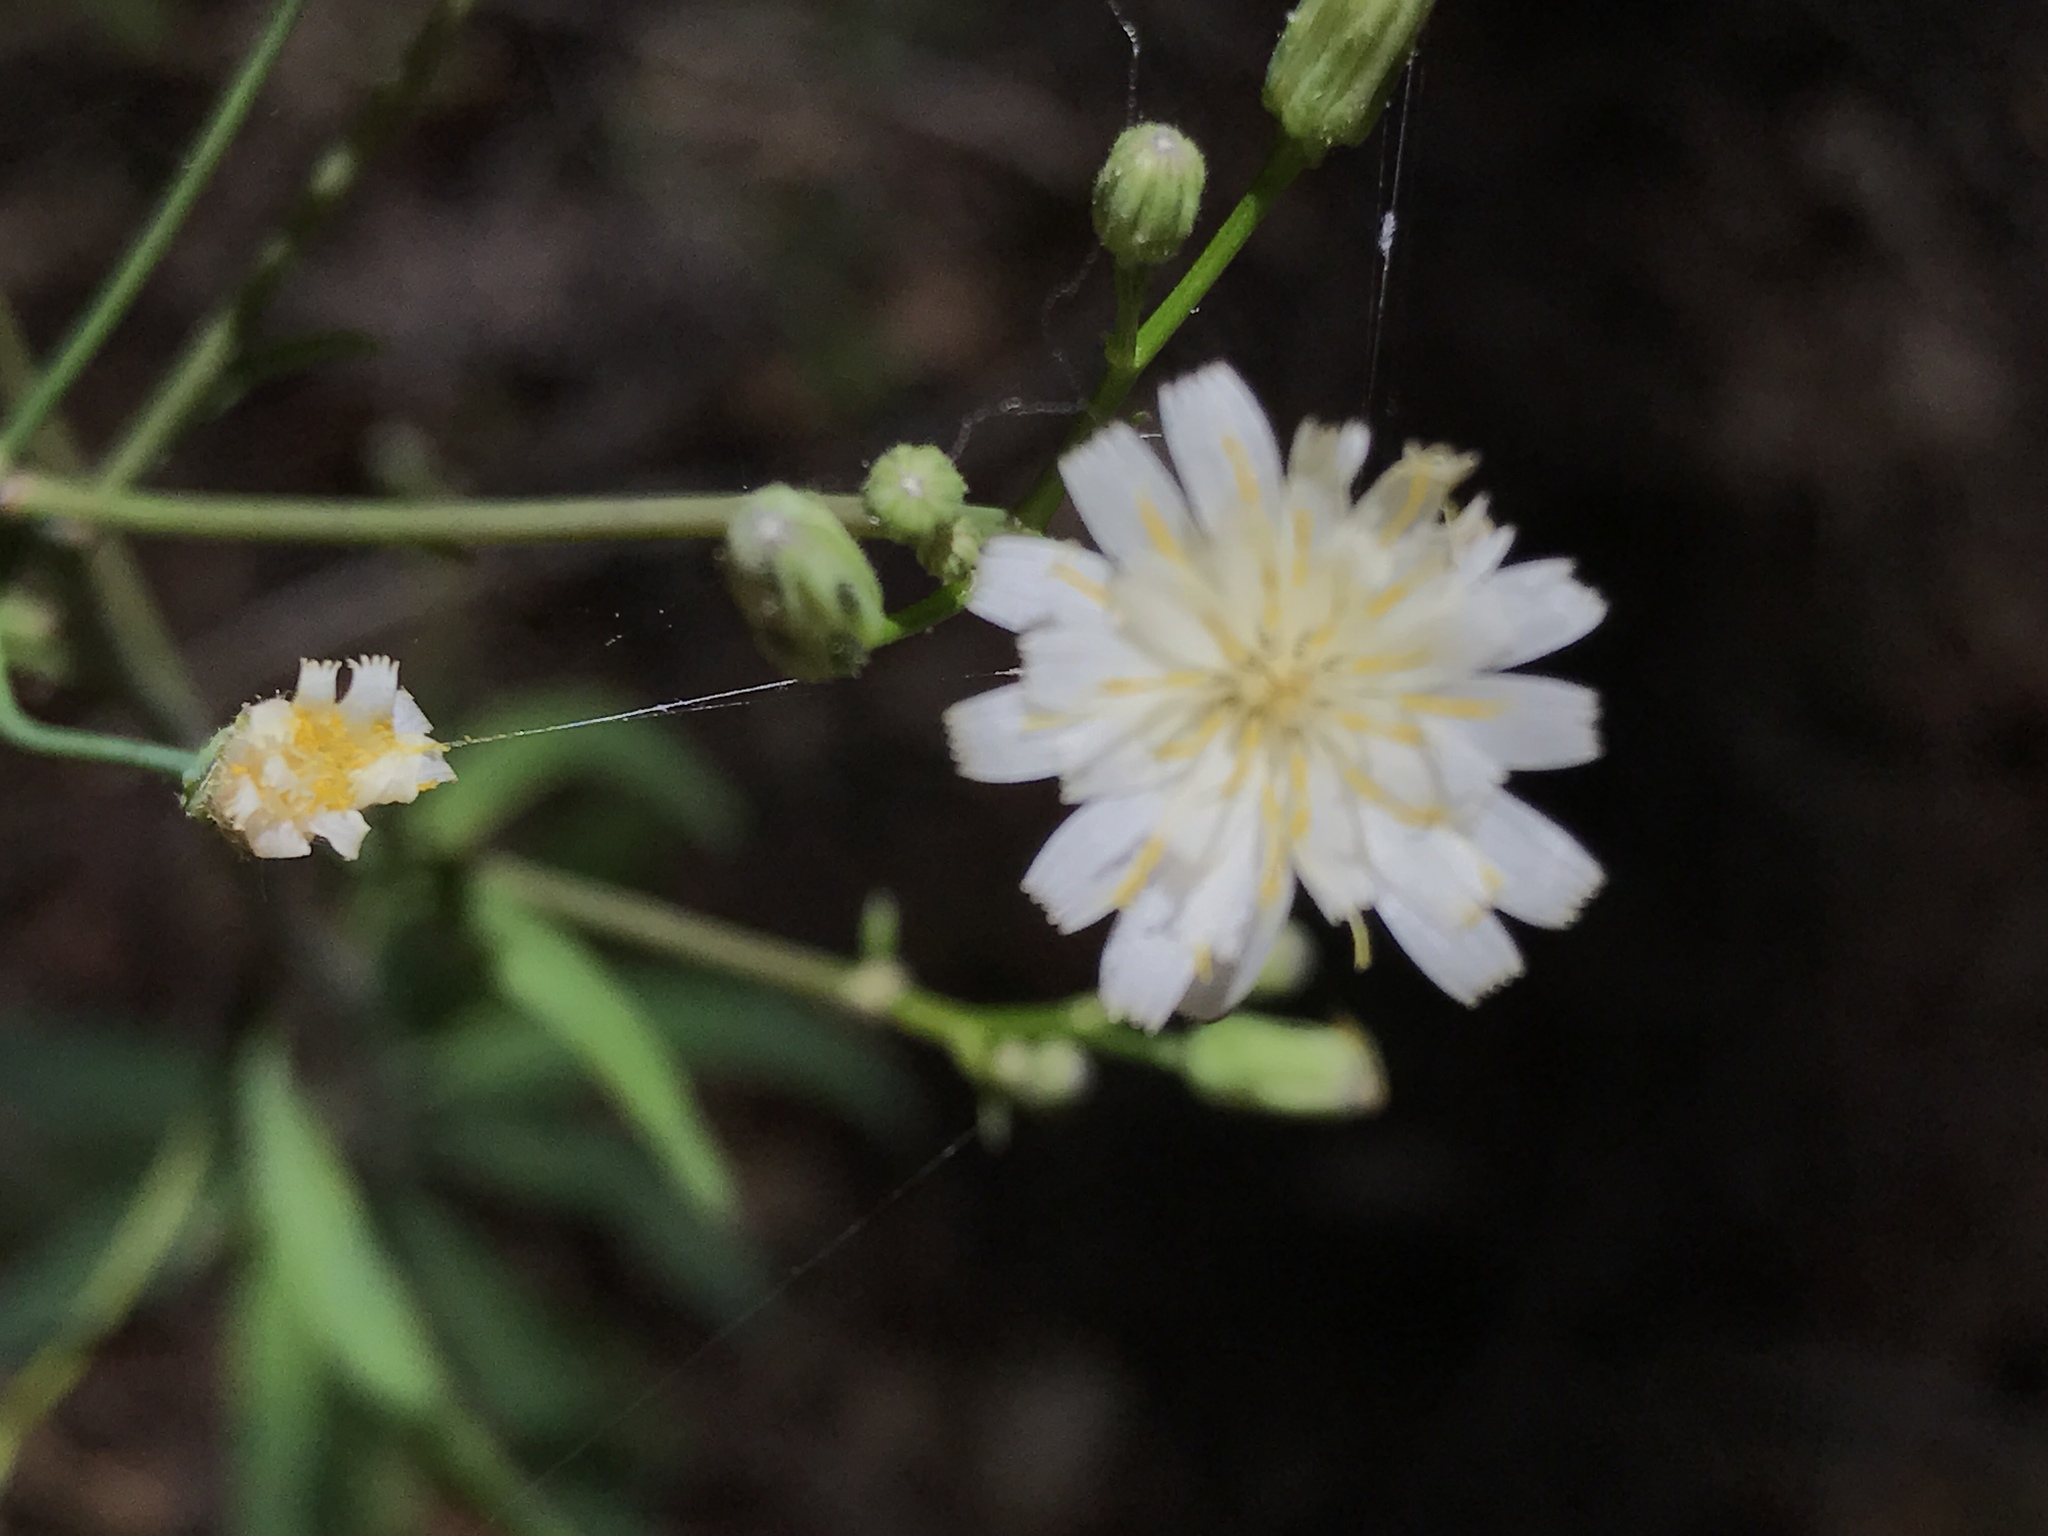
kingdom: Plantae
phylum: Tracheophyta
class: Magnoliopsida
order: Asterales
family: Asteraceae
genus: Rafinesquia
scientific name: Rafinesquia californica
